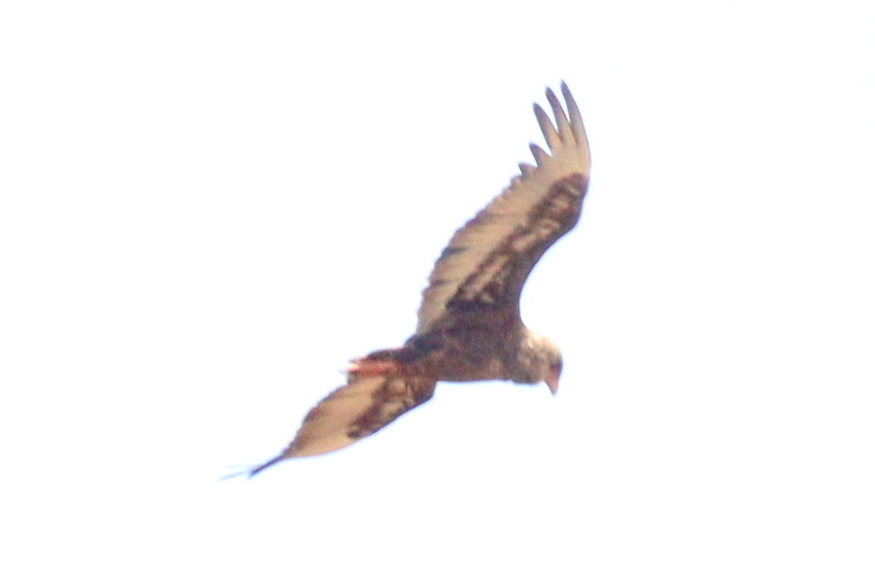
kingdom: Animalia
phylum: Chordata
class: Aves
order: Accipitriformes
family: Accipitridae
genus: Terathopius
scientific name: Terathopius ecaudatus
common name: Bateleur
